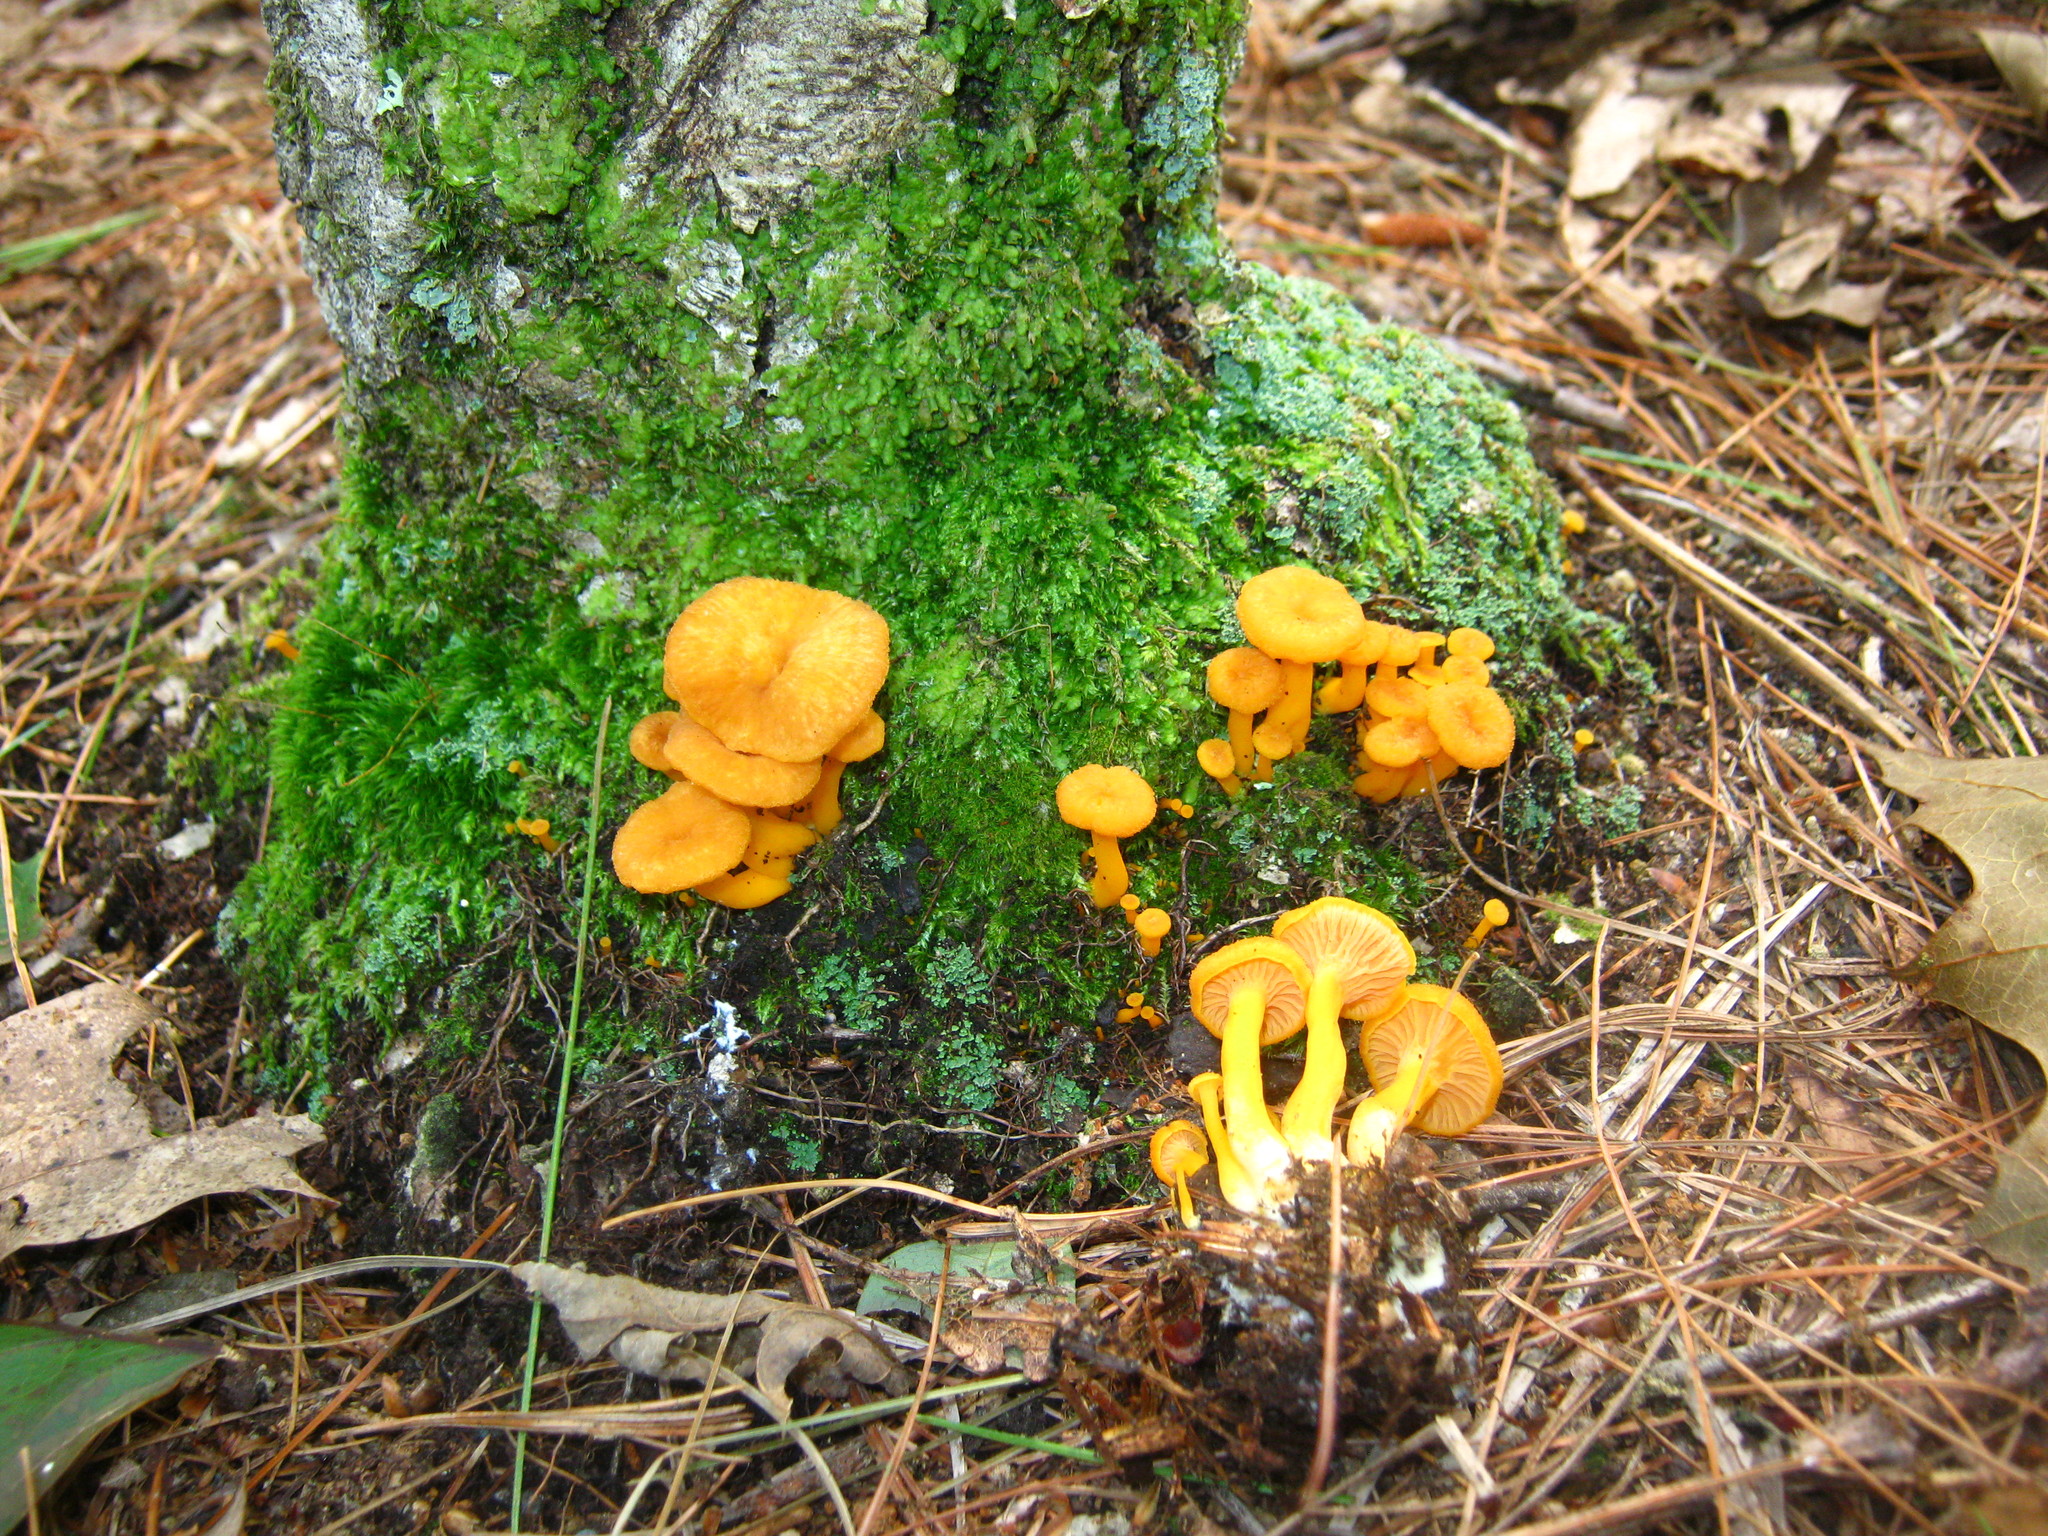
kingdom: Fungi
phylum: Basidiomycota
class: Agaricomycetes
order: Cantharellales
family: Hydnaceae
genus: Craterellus
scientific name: Craterellus ignicolor
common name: Flame chanterelle
